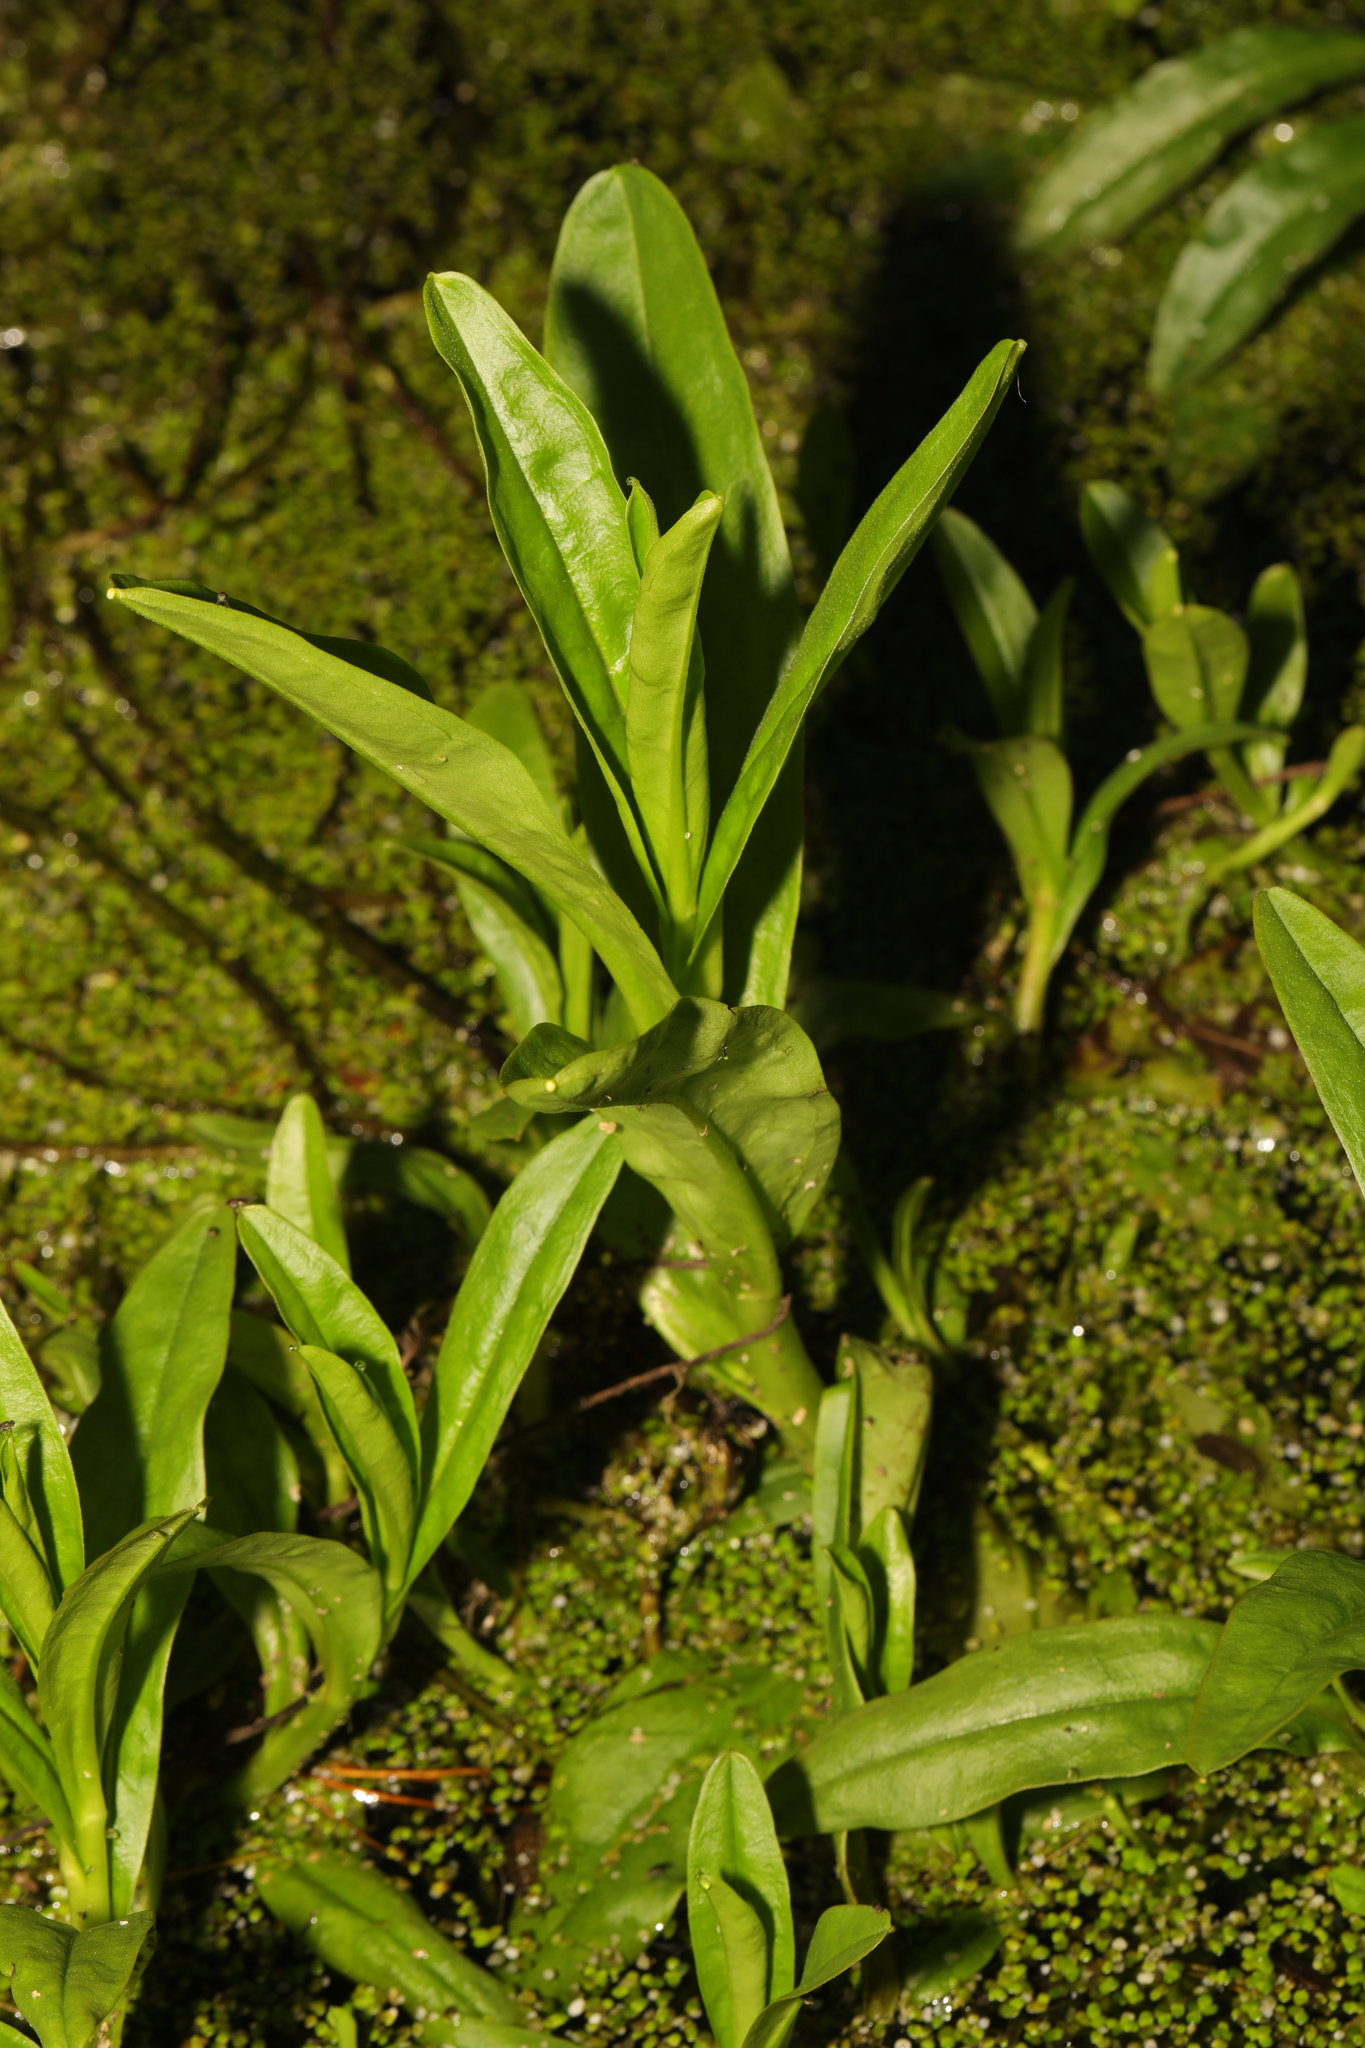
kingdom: Plantae
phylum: Tracheophyta
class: Magnoliopsida
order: Boraginales
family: Boraginaceae
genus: Myosotis
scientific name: Myosotis scorpioides
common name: Water forget-me-not
